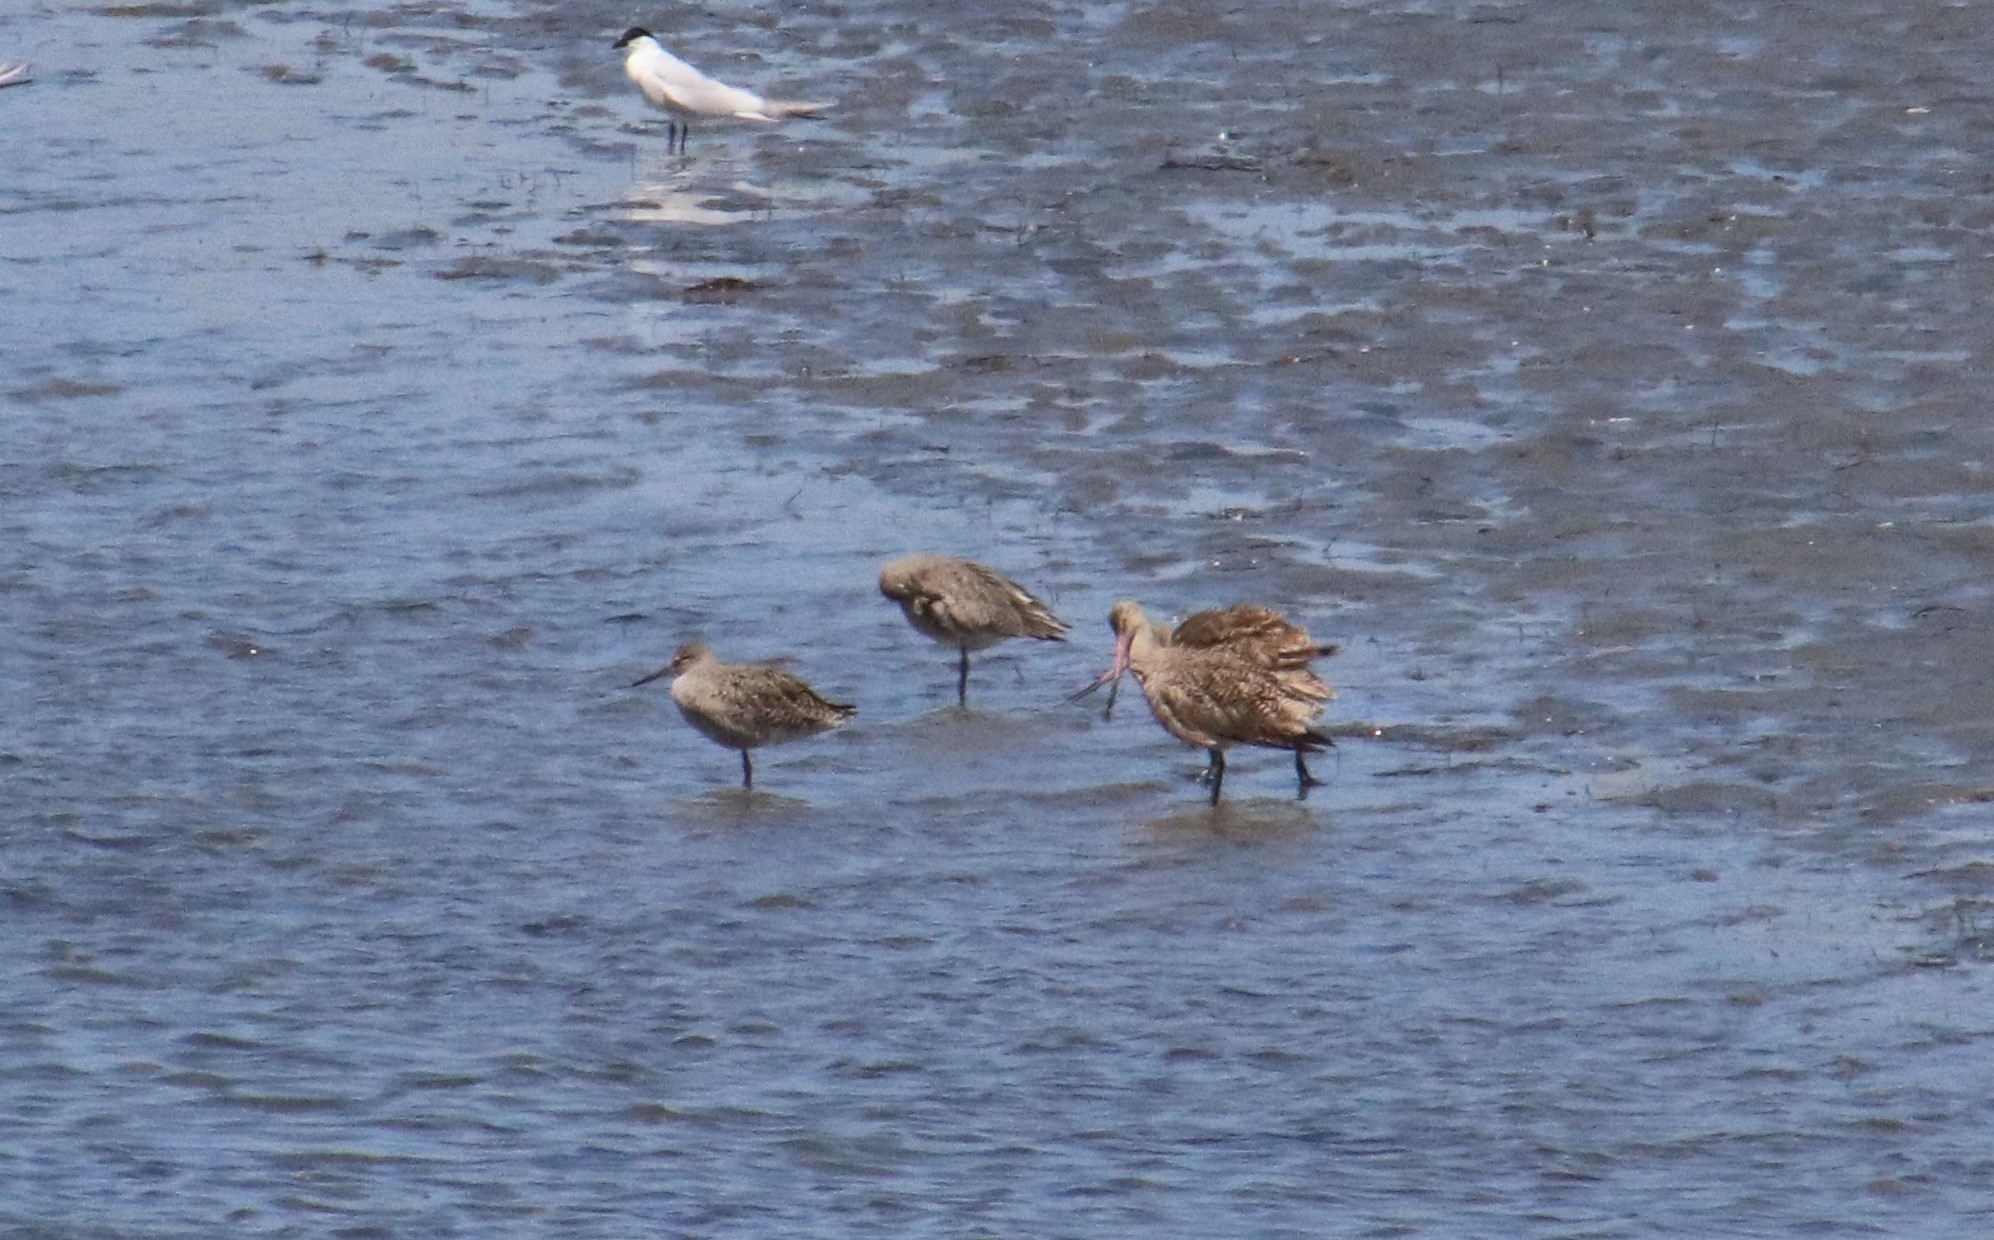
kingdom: Animalia
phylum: Chordata
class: Aves
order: Charadriiformes
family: Scolopacidae
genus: Tringa
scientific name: Tringa semipalmata
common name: Willet
